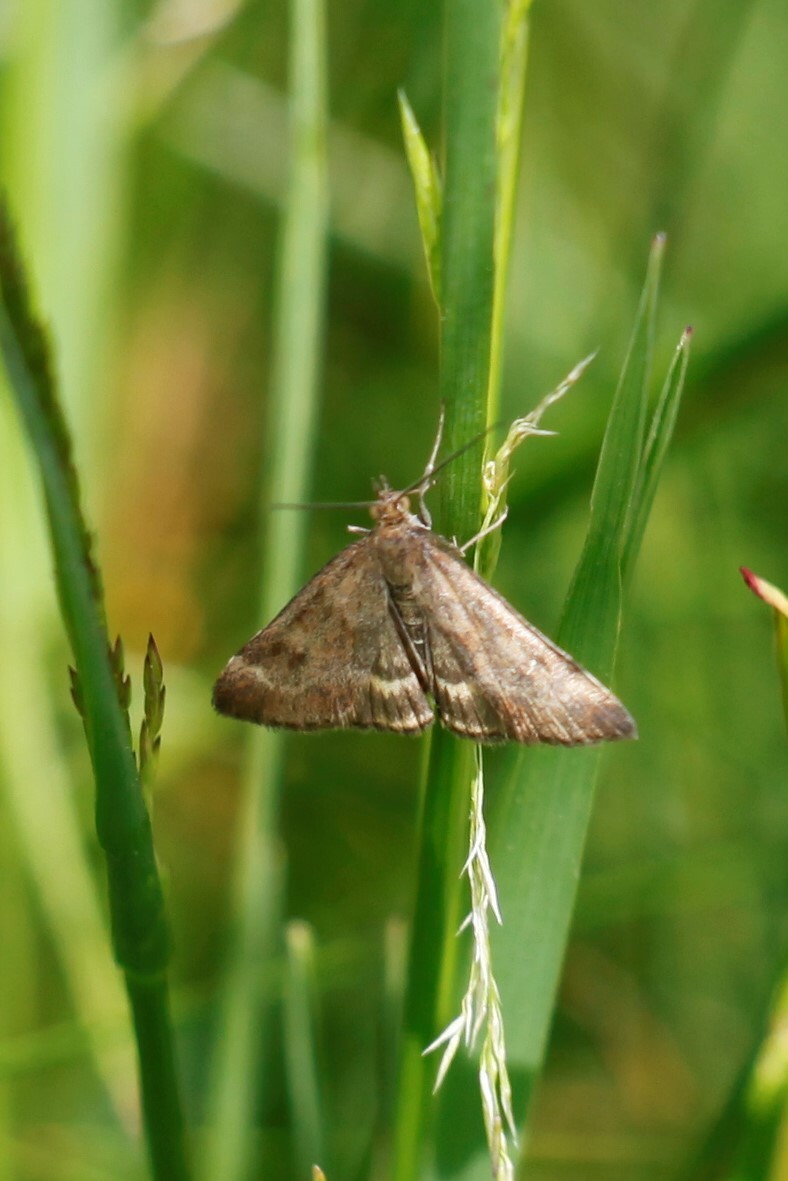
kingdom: Animalia
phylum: Arthropoda
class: Insecta
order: Lepidoptera
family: Crambidae
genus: Pyrausta
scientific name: Pyrausta despicata
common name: Straw-barred pearl
